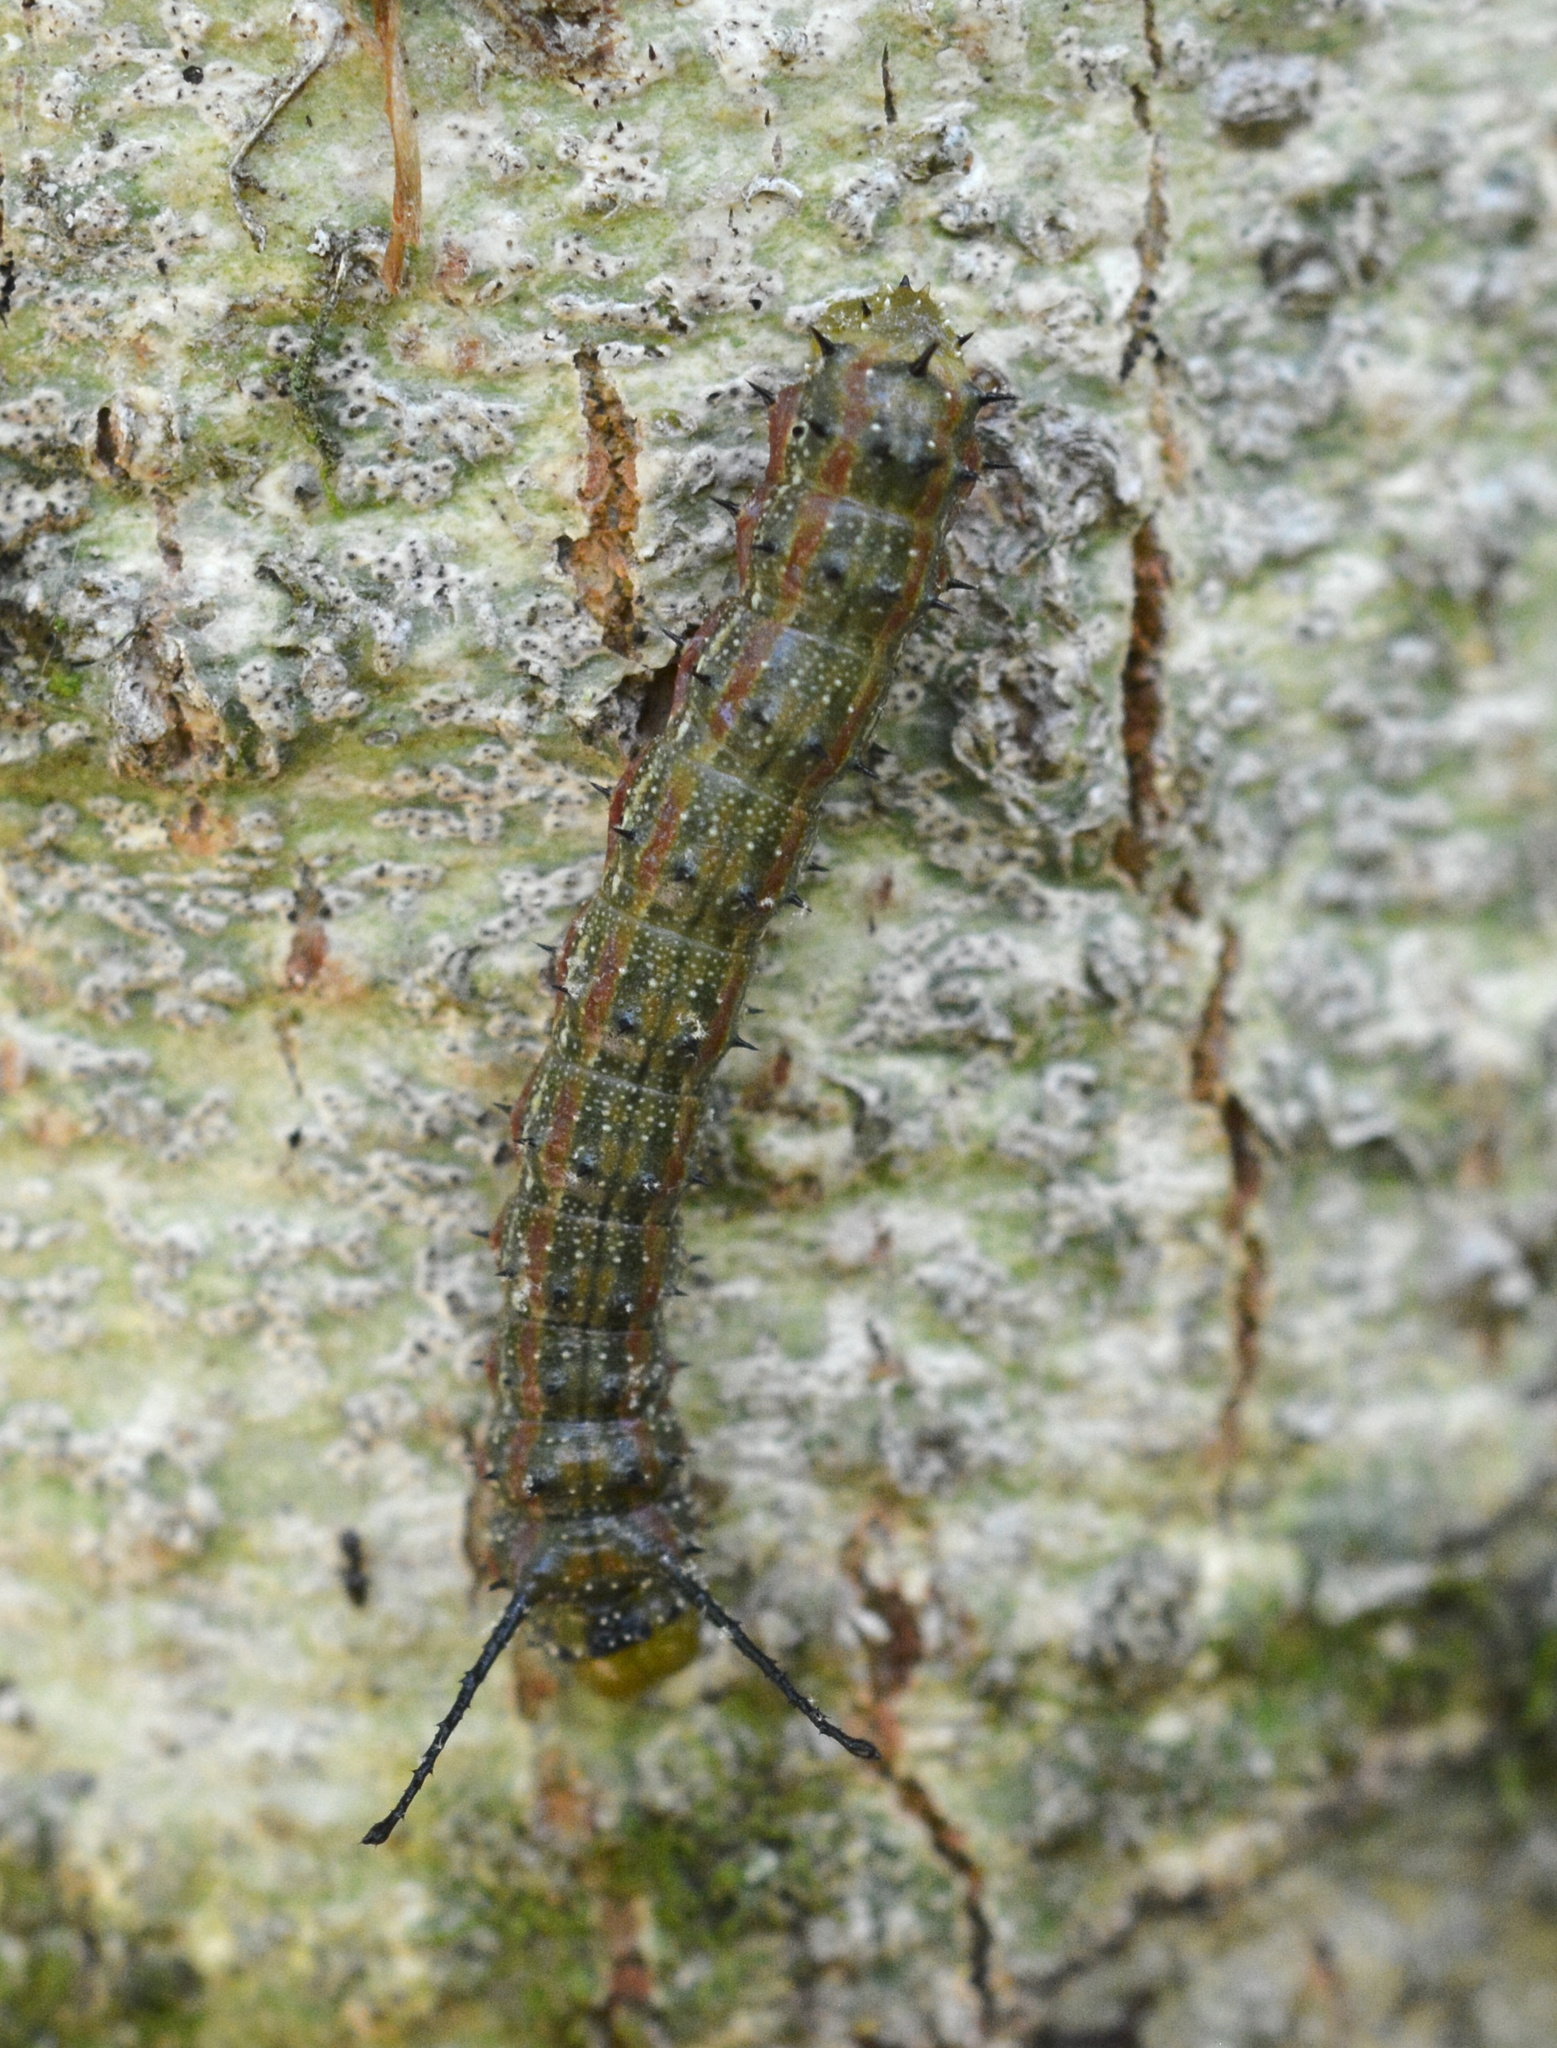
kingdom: Animalia
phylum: Arthropoda
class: Insecta
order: Lepidoptera
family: Saturniidae
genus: Anisota
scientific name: Anisota virginiensis
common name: Pink striped oakworm moth
